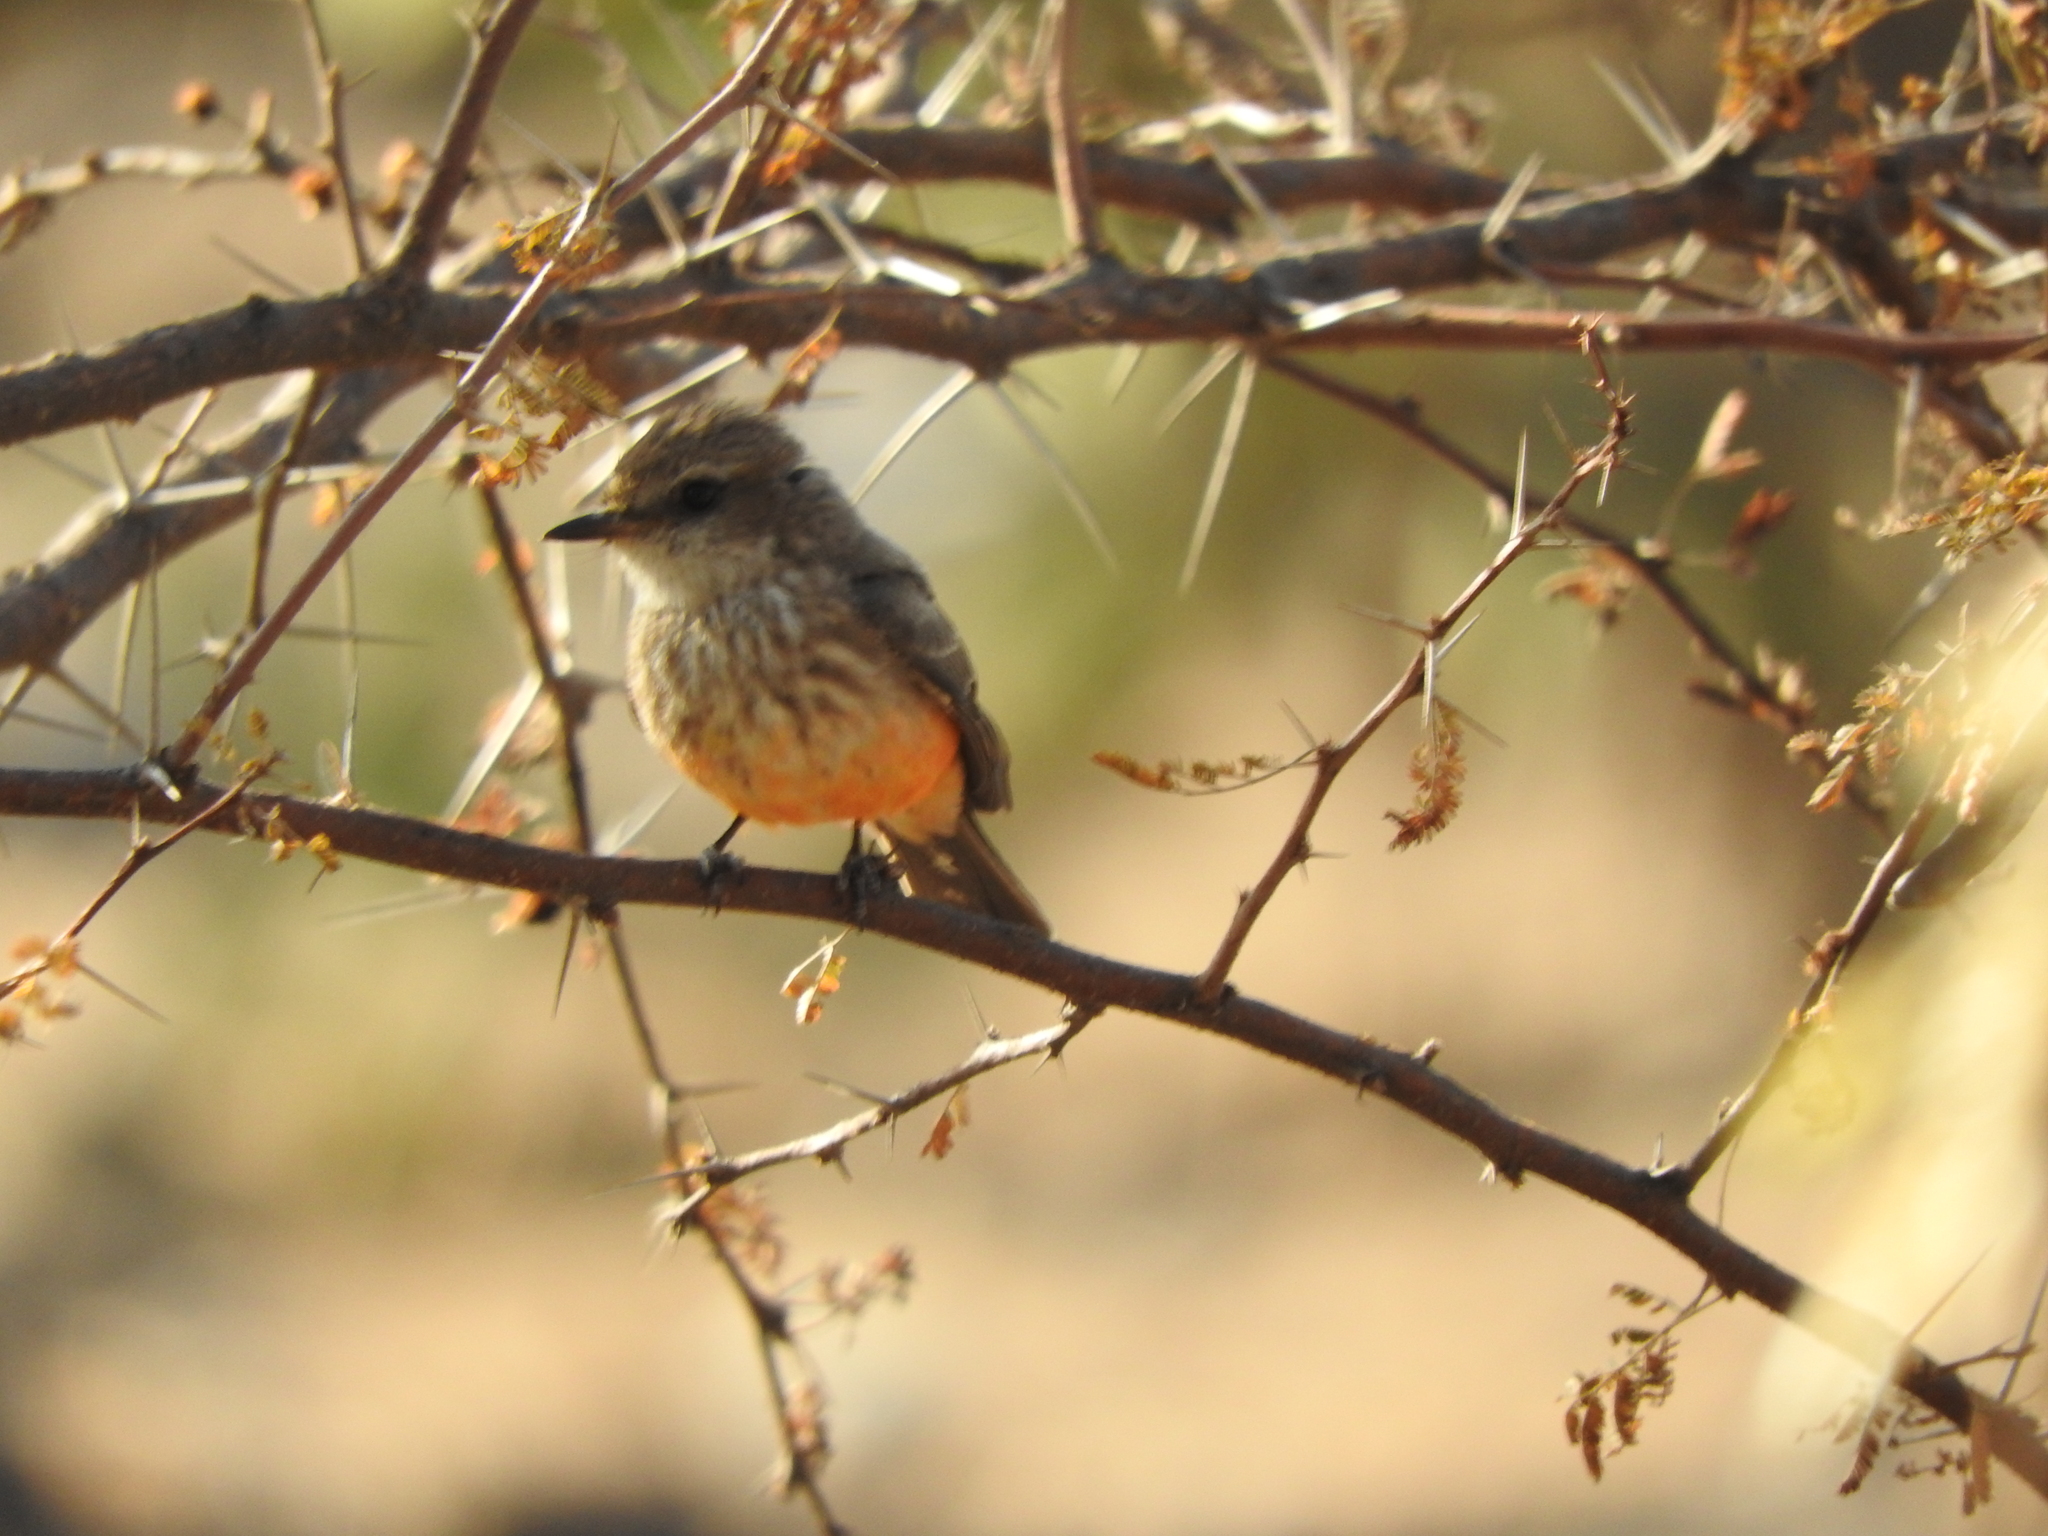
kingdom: Animalia
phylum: Chordata
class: Aves
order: Passeriformes
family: Tyrannidae
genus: Pyrocephalus
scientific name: Pyrocephalus rubinus
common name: Vermilion flycatcher
